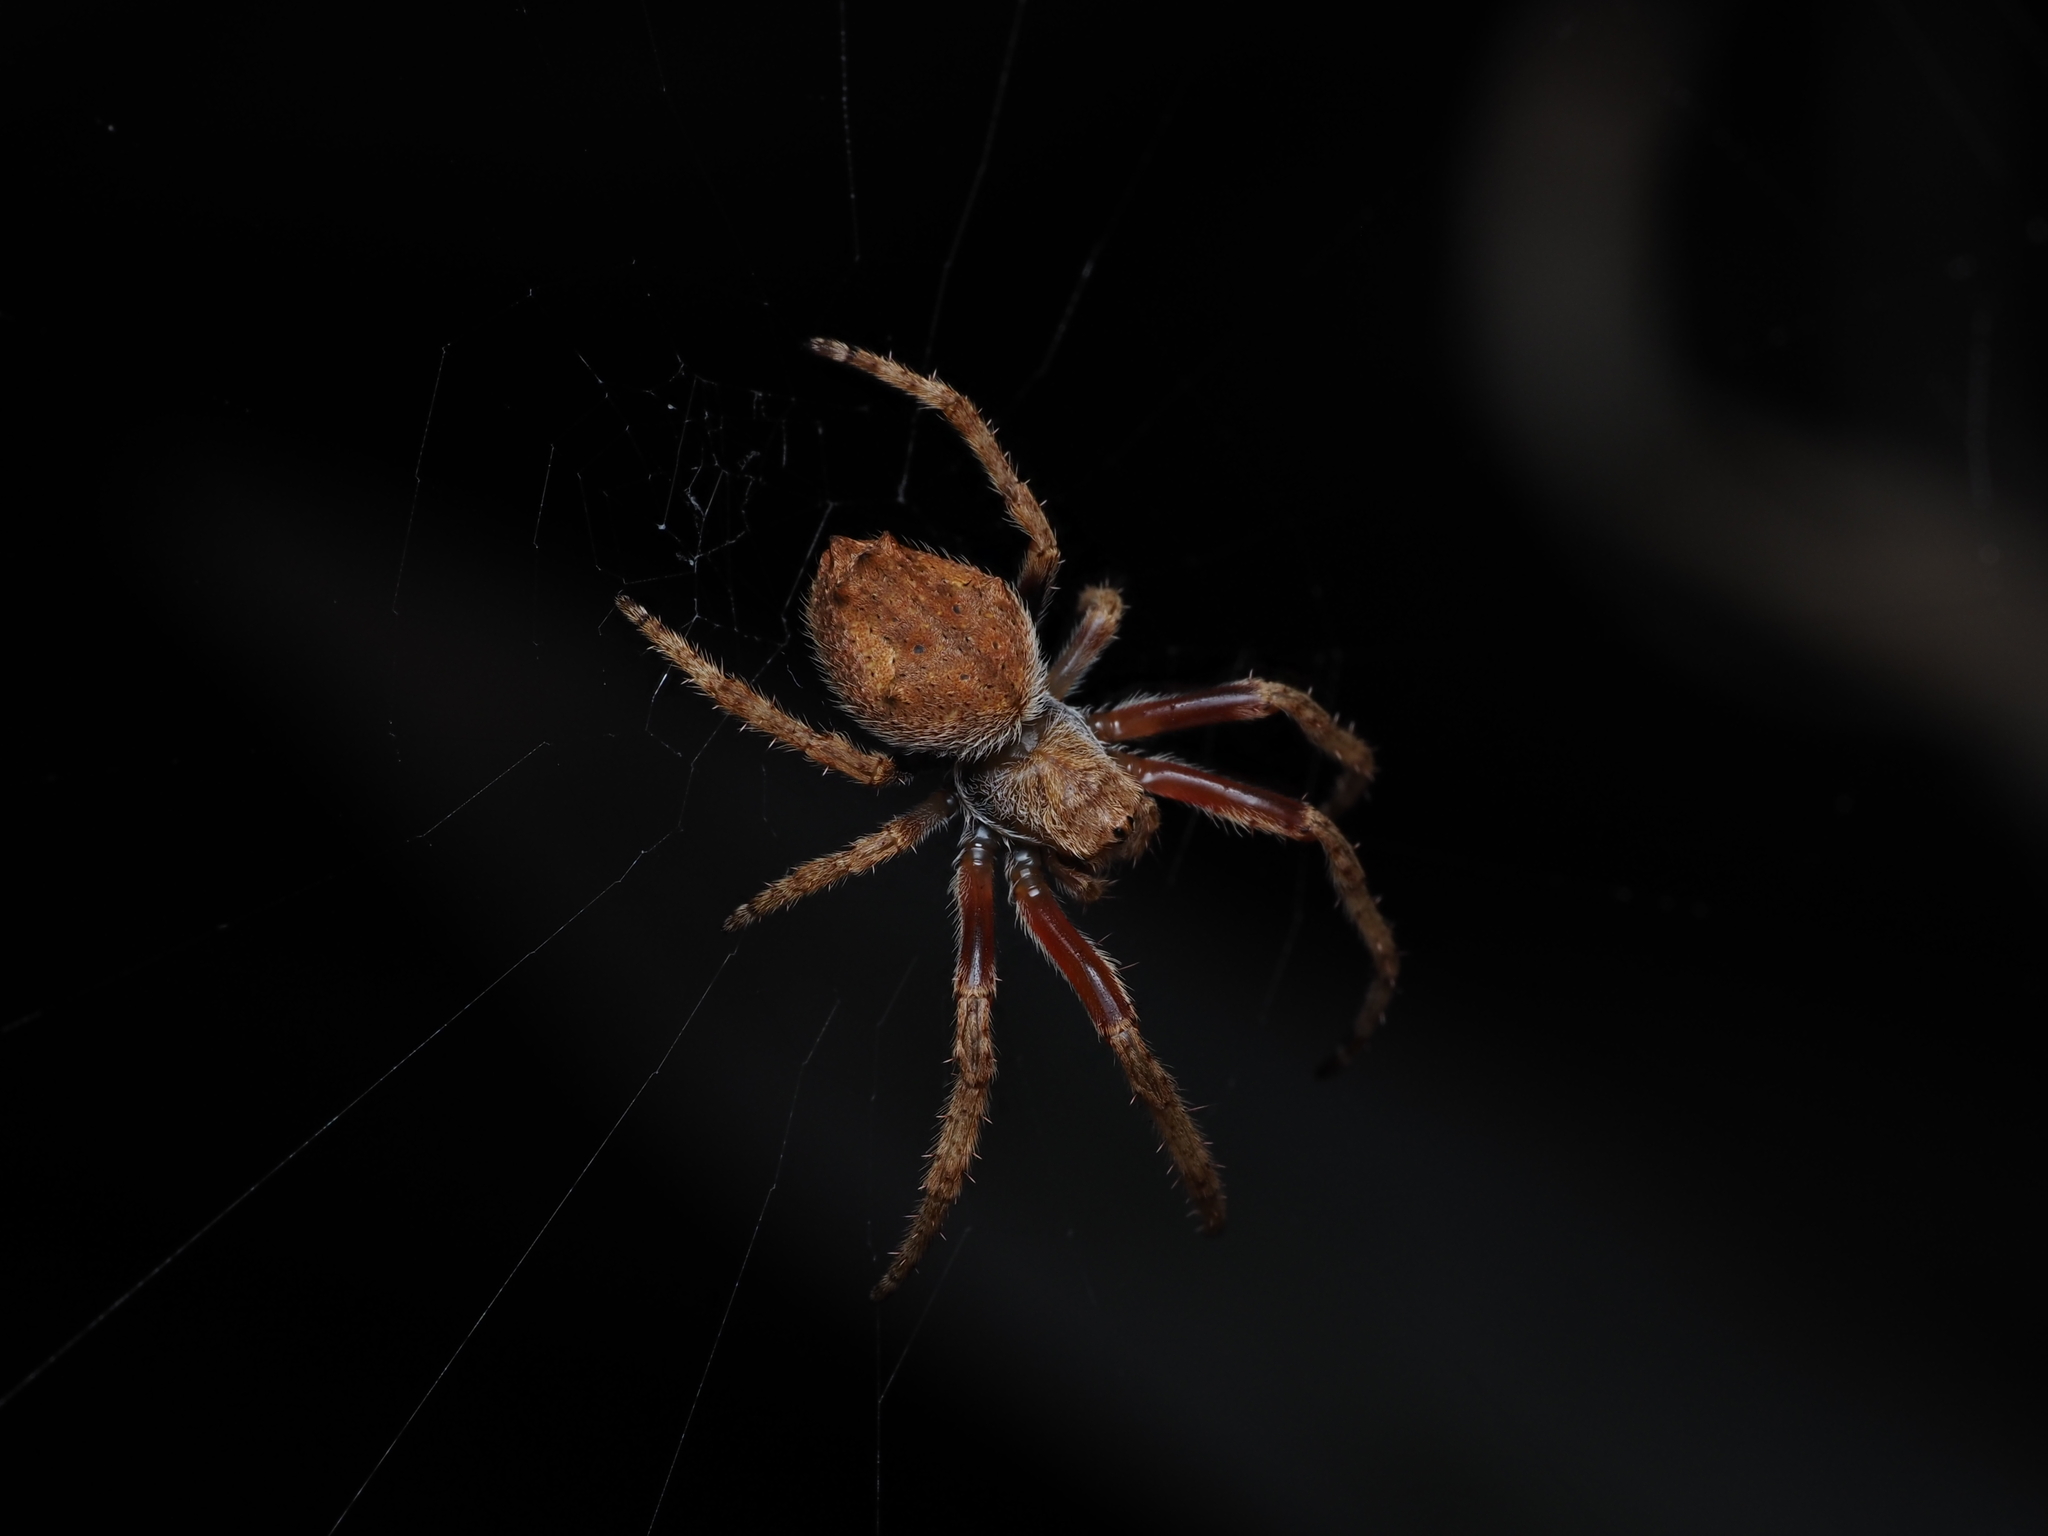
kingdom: Animalia
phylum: Arthropoda
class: Arachnida
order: Araneae
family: Araneidae
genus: Eriophora
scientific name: Eriophora pustulosa
